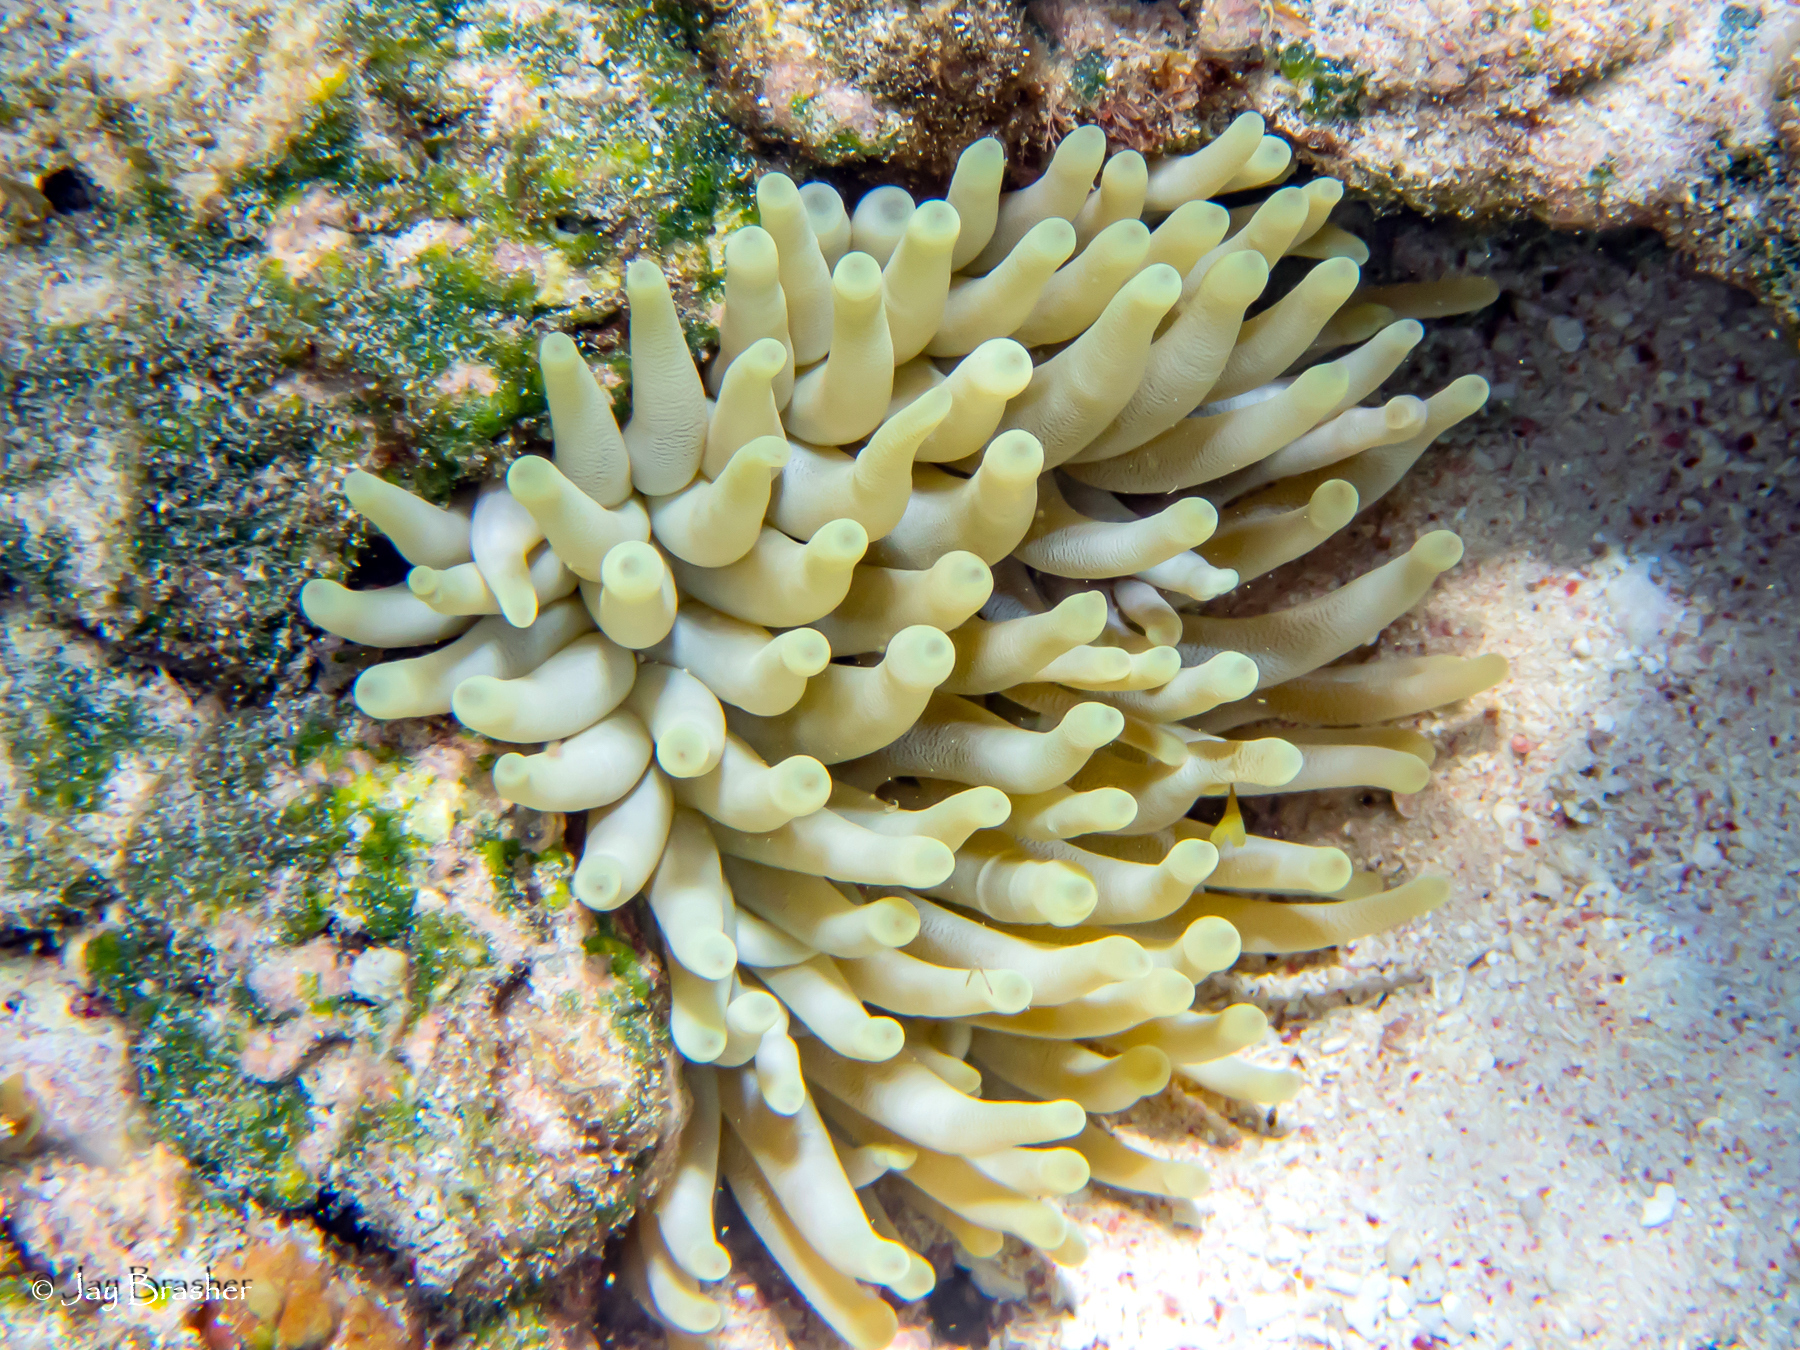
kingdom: Animalia
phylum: Cnidaria
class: Anthozoa
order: Actiniaria
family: Actiniidae
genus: Condylactis
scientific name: Condylactis gigantea
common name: Giant caribbean anemone
